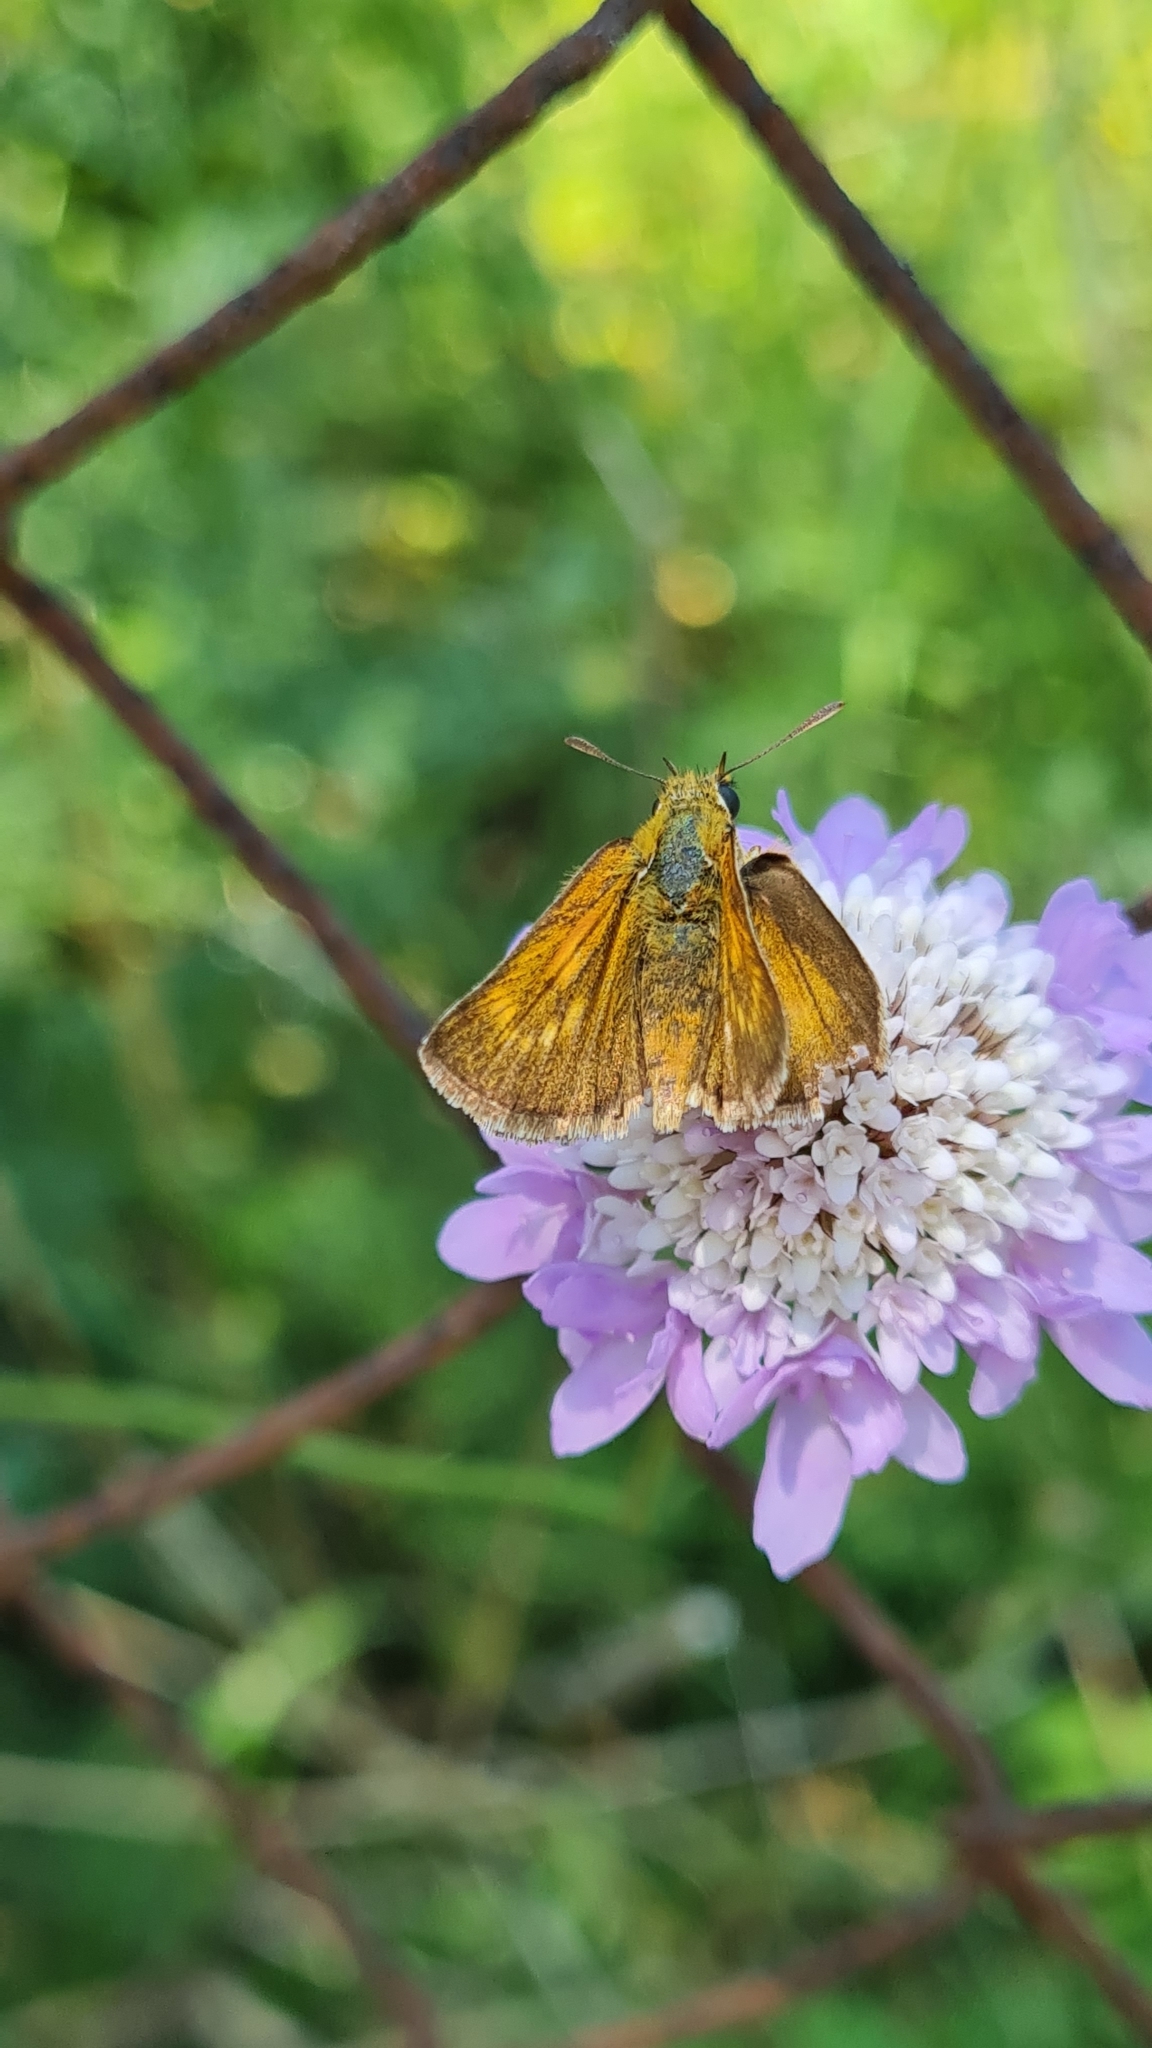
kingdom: Animalia
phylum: Arthropoda
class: Insecta
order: Lepidoptera
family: Hesperiidae
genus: Thymelicus
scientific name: Thymelicus acteon
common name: Lulworth skipper
